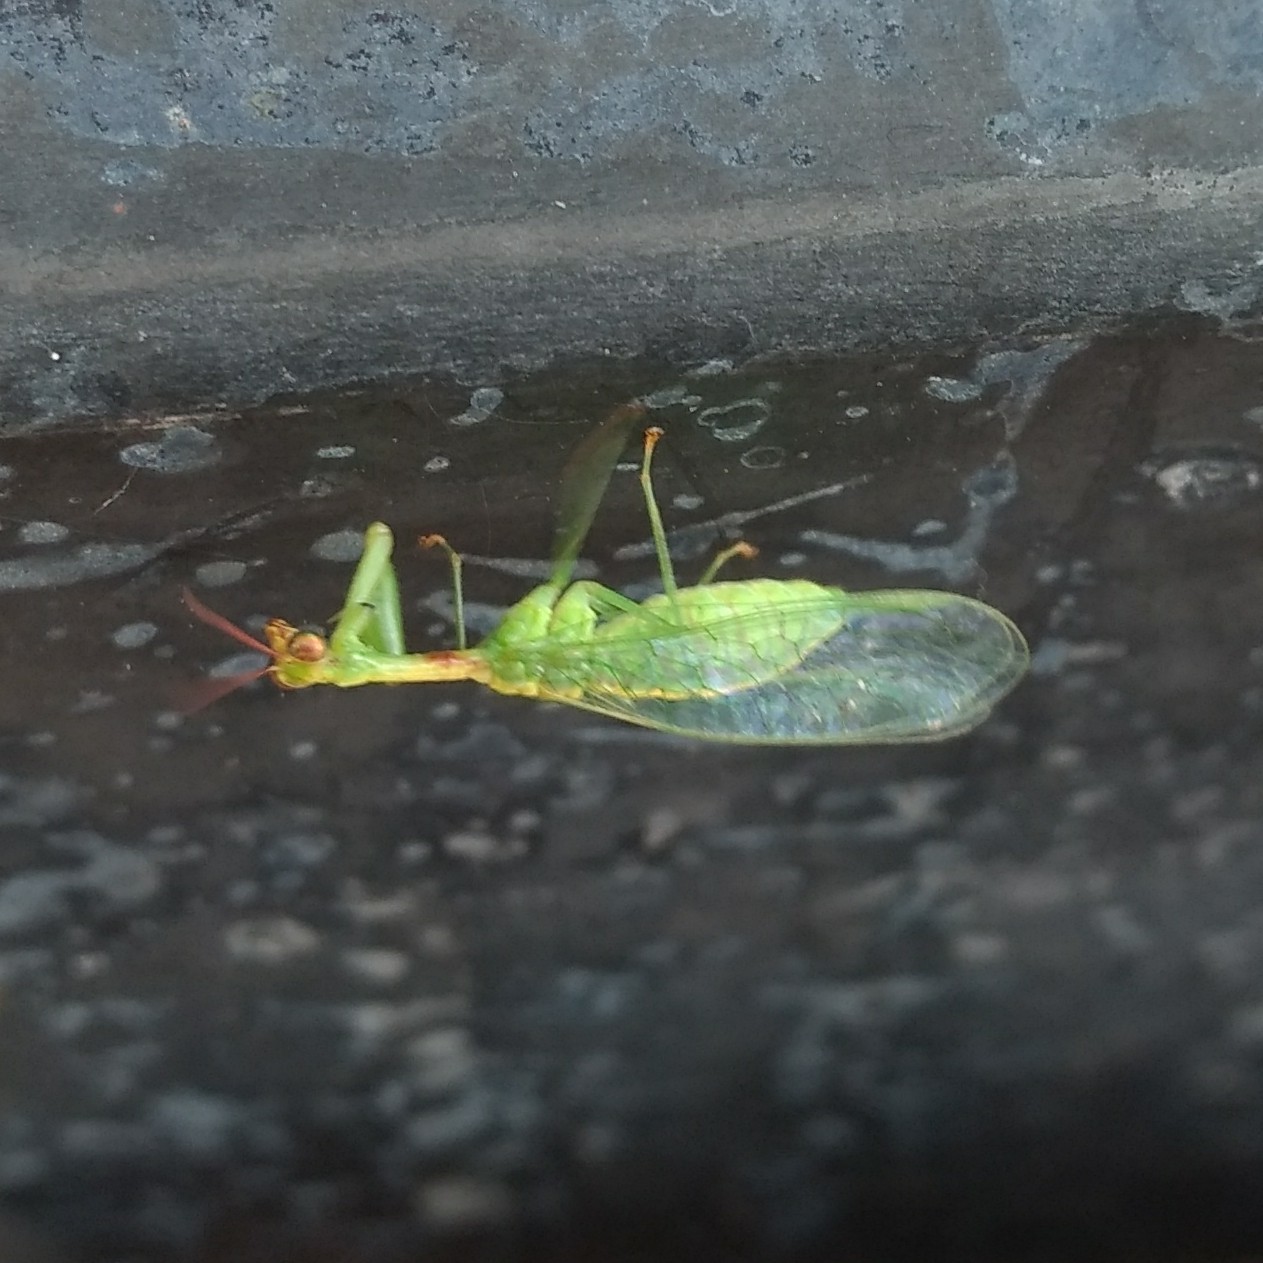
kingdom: Animalia
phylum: Arthropoda
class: Insecta
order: Neuroptera
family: Mantispidae
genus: Zeugomantispa
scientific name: Zeugomantispa minuta
